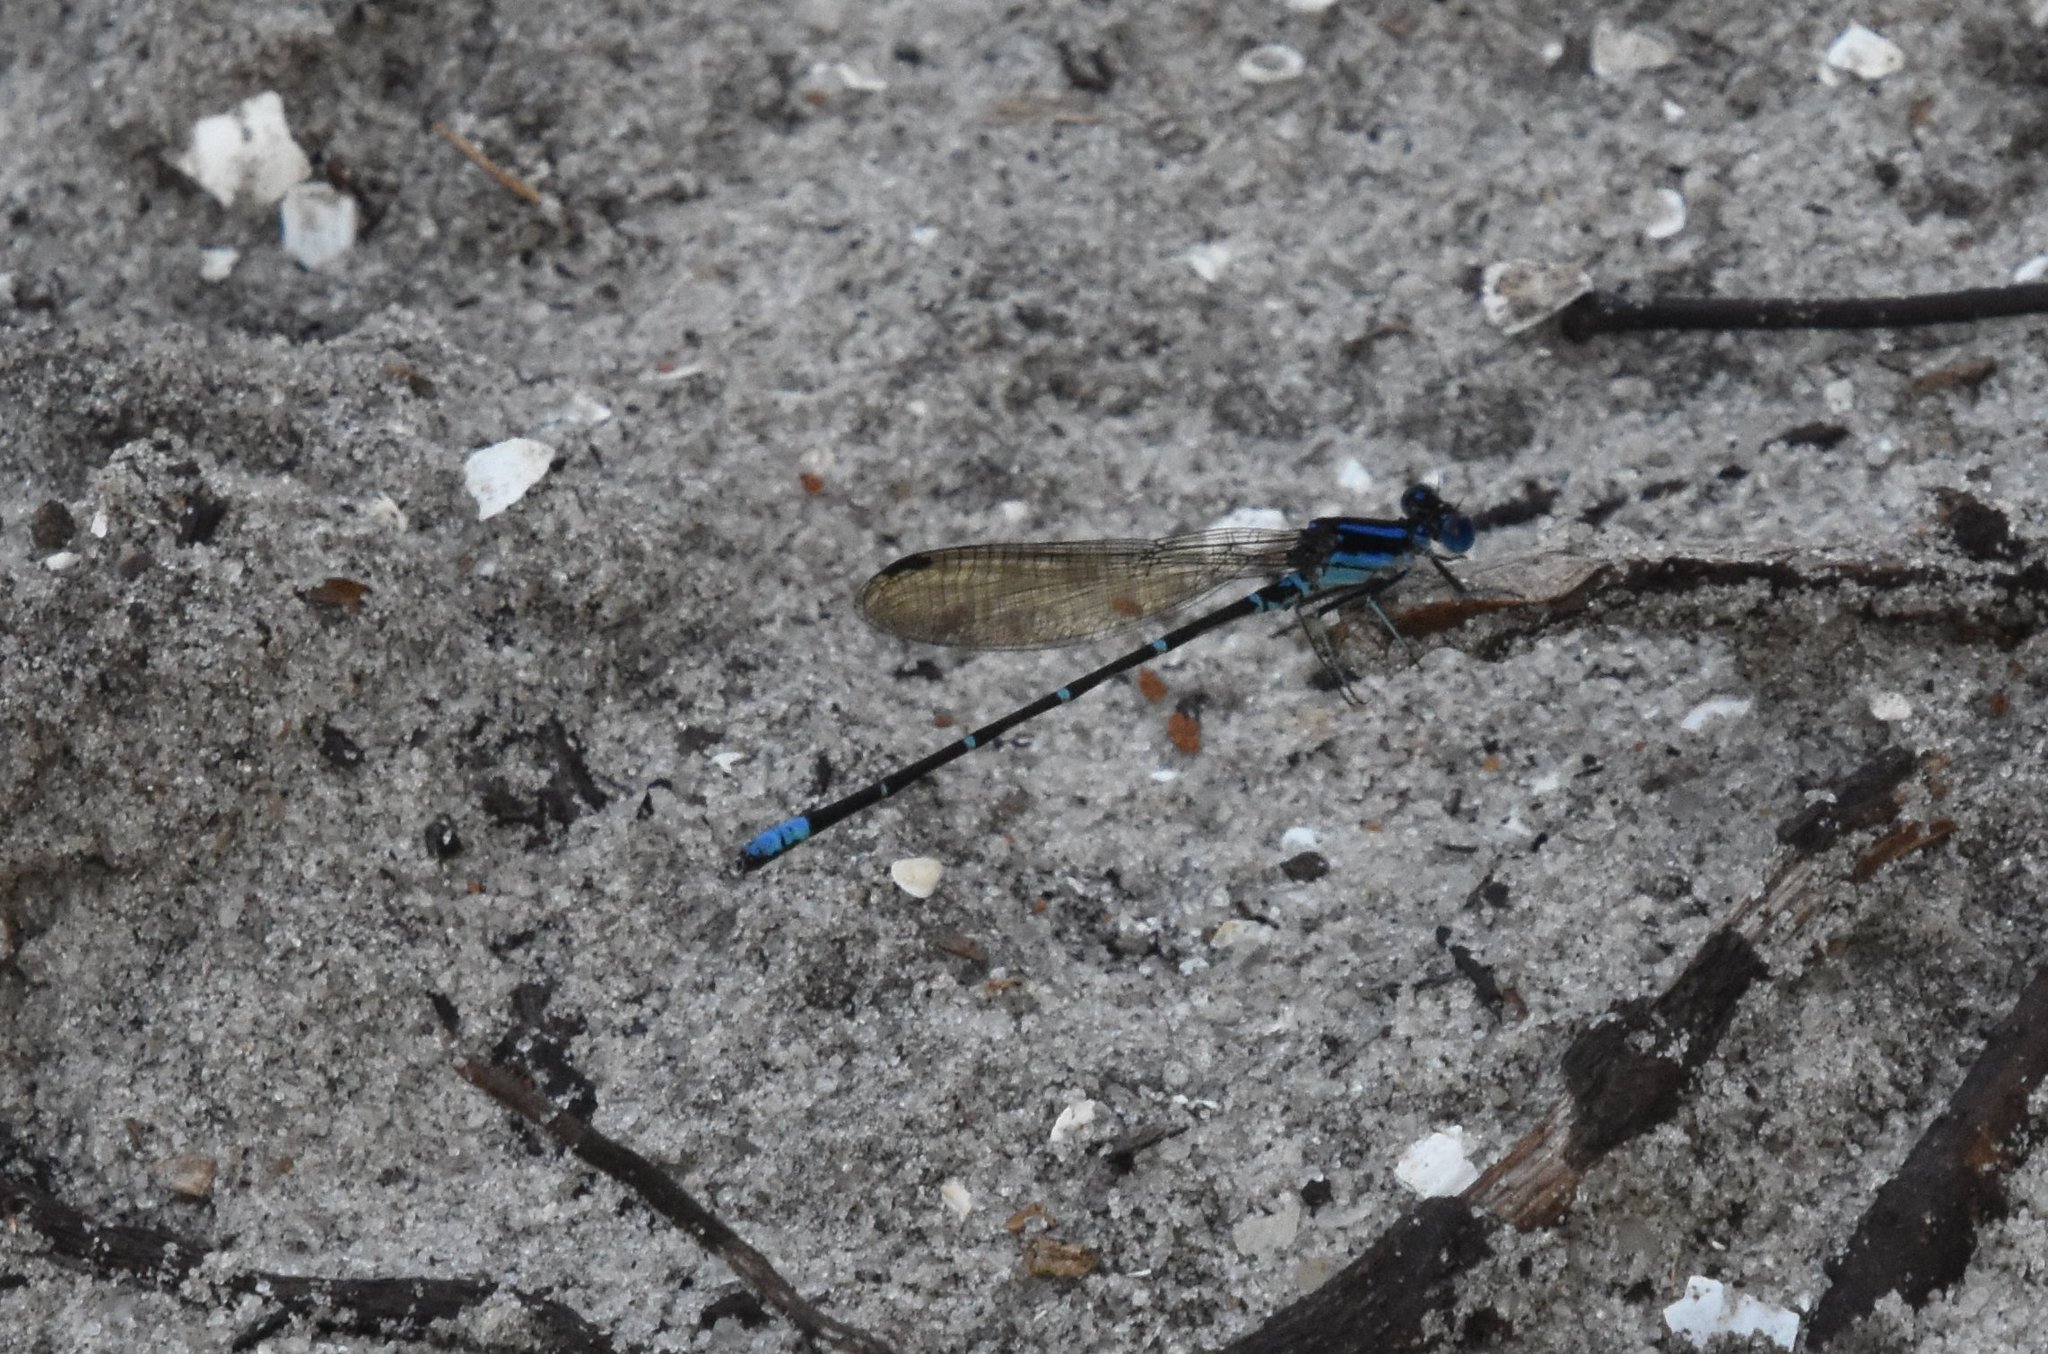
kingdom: Animalia
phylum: Arthropoda
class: Insecta
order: Odonata
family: Coenagrionidae
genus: Argia
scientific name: Argia sedula
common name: Blue-ringed dancer
